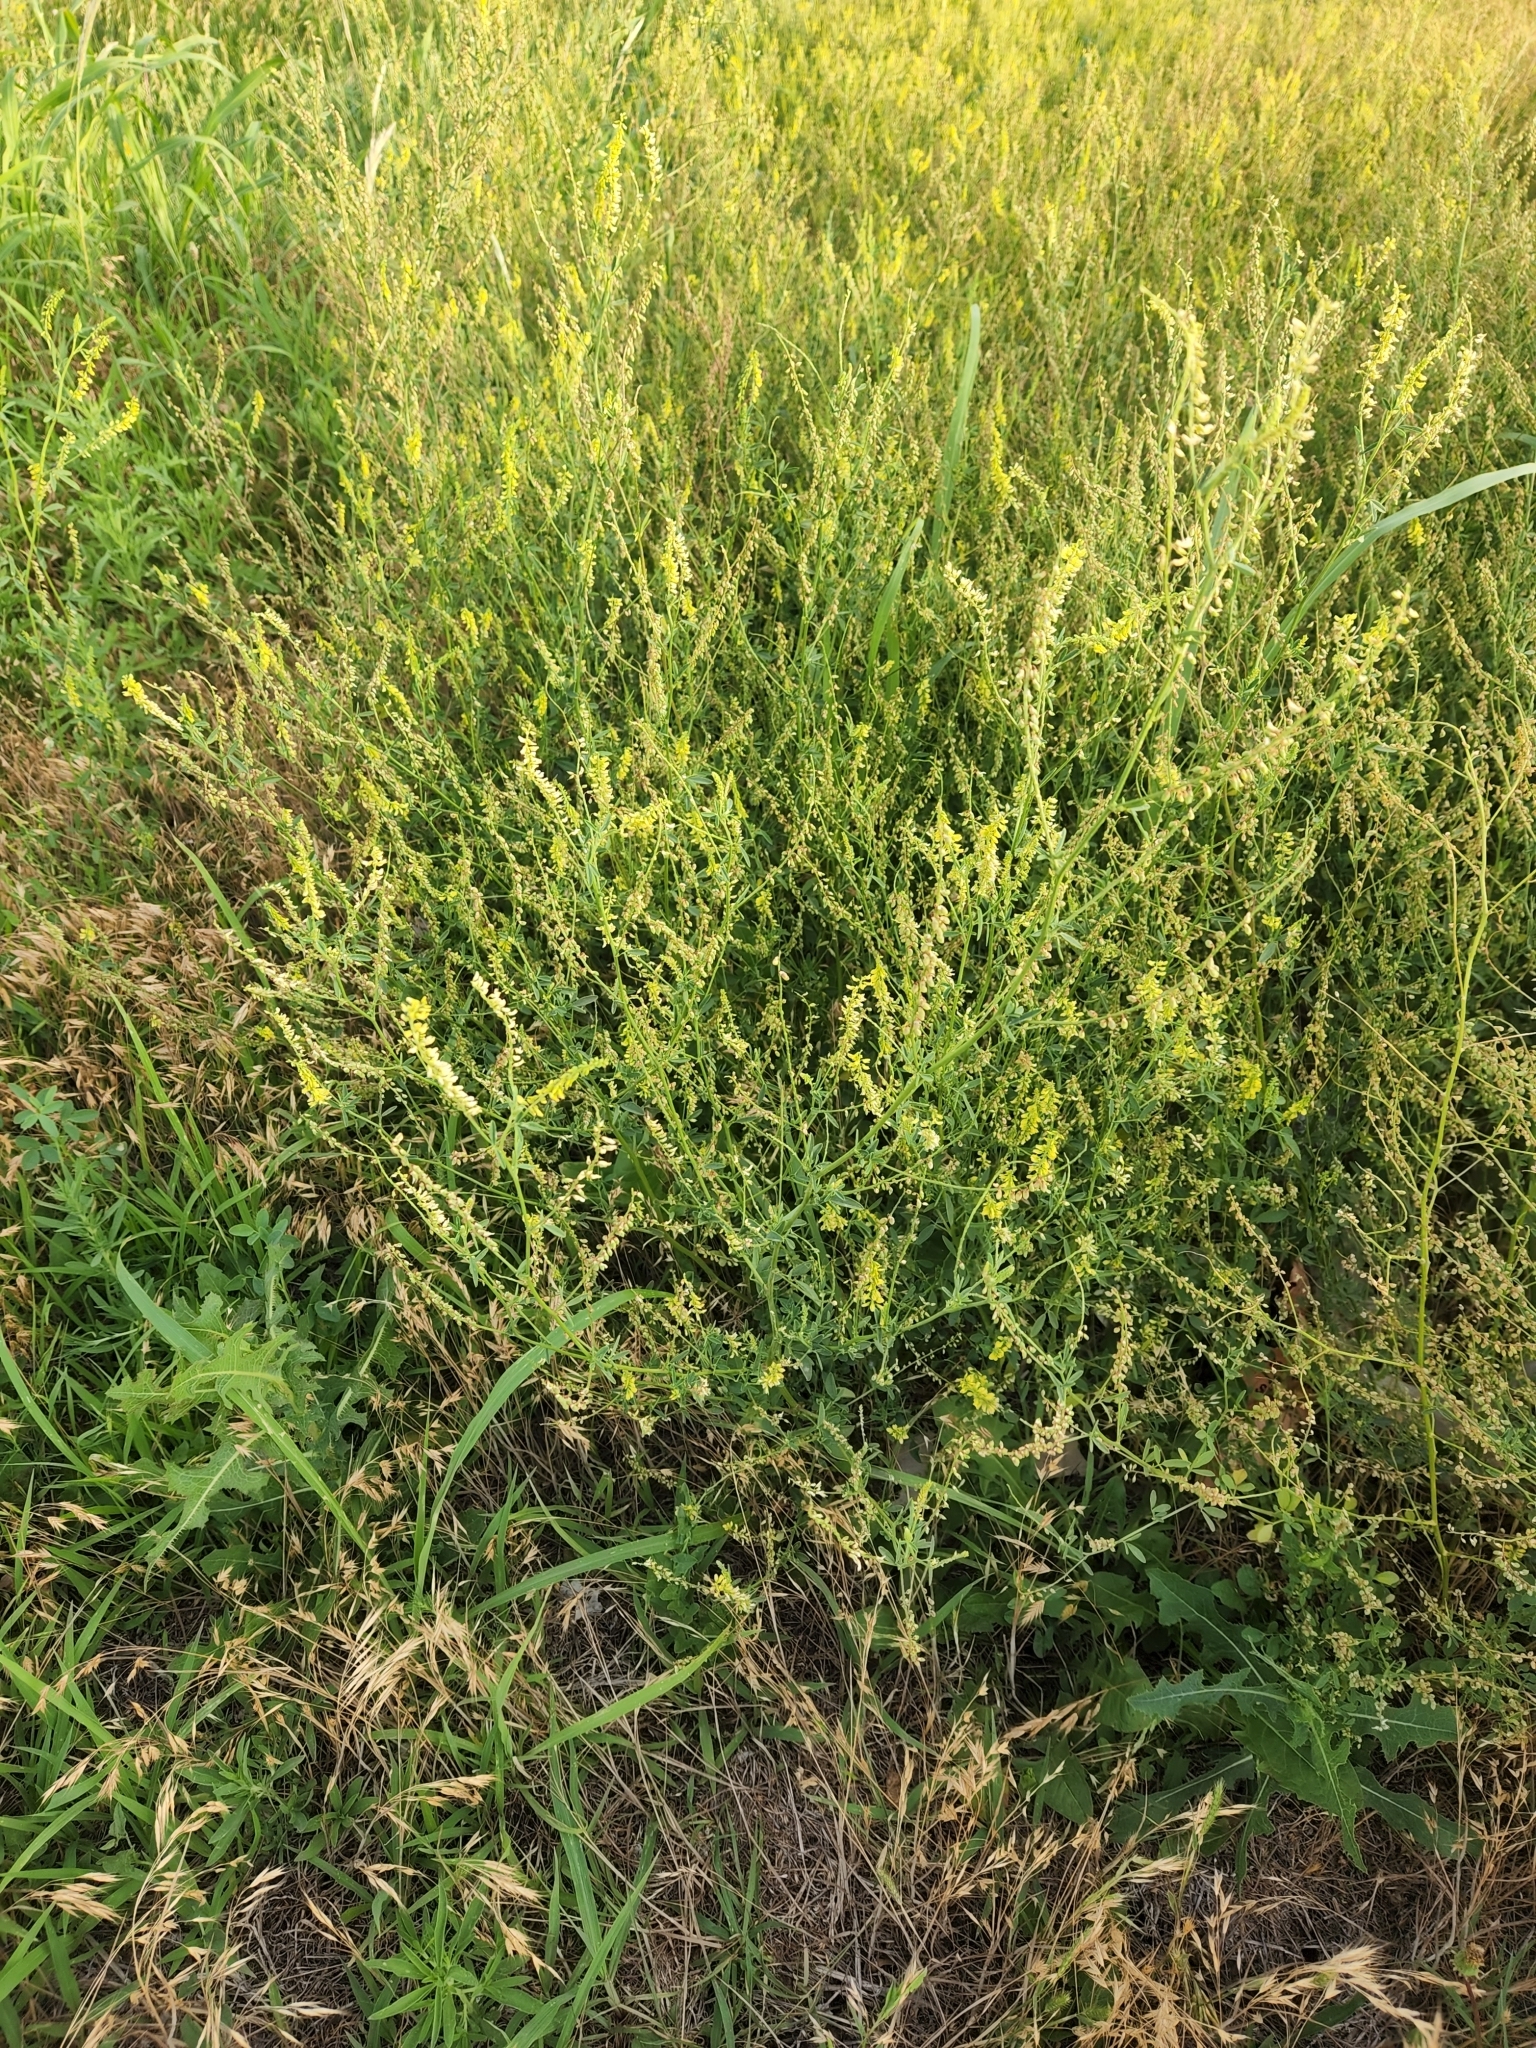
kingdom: Plantae
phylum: Tracheophyta
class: Magnoliopsida
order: Fabales
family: Fabaceae
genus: Melilotus
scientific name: Melilotus officinalis
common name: Sweetclover
